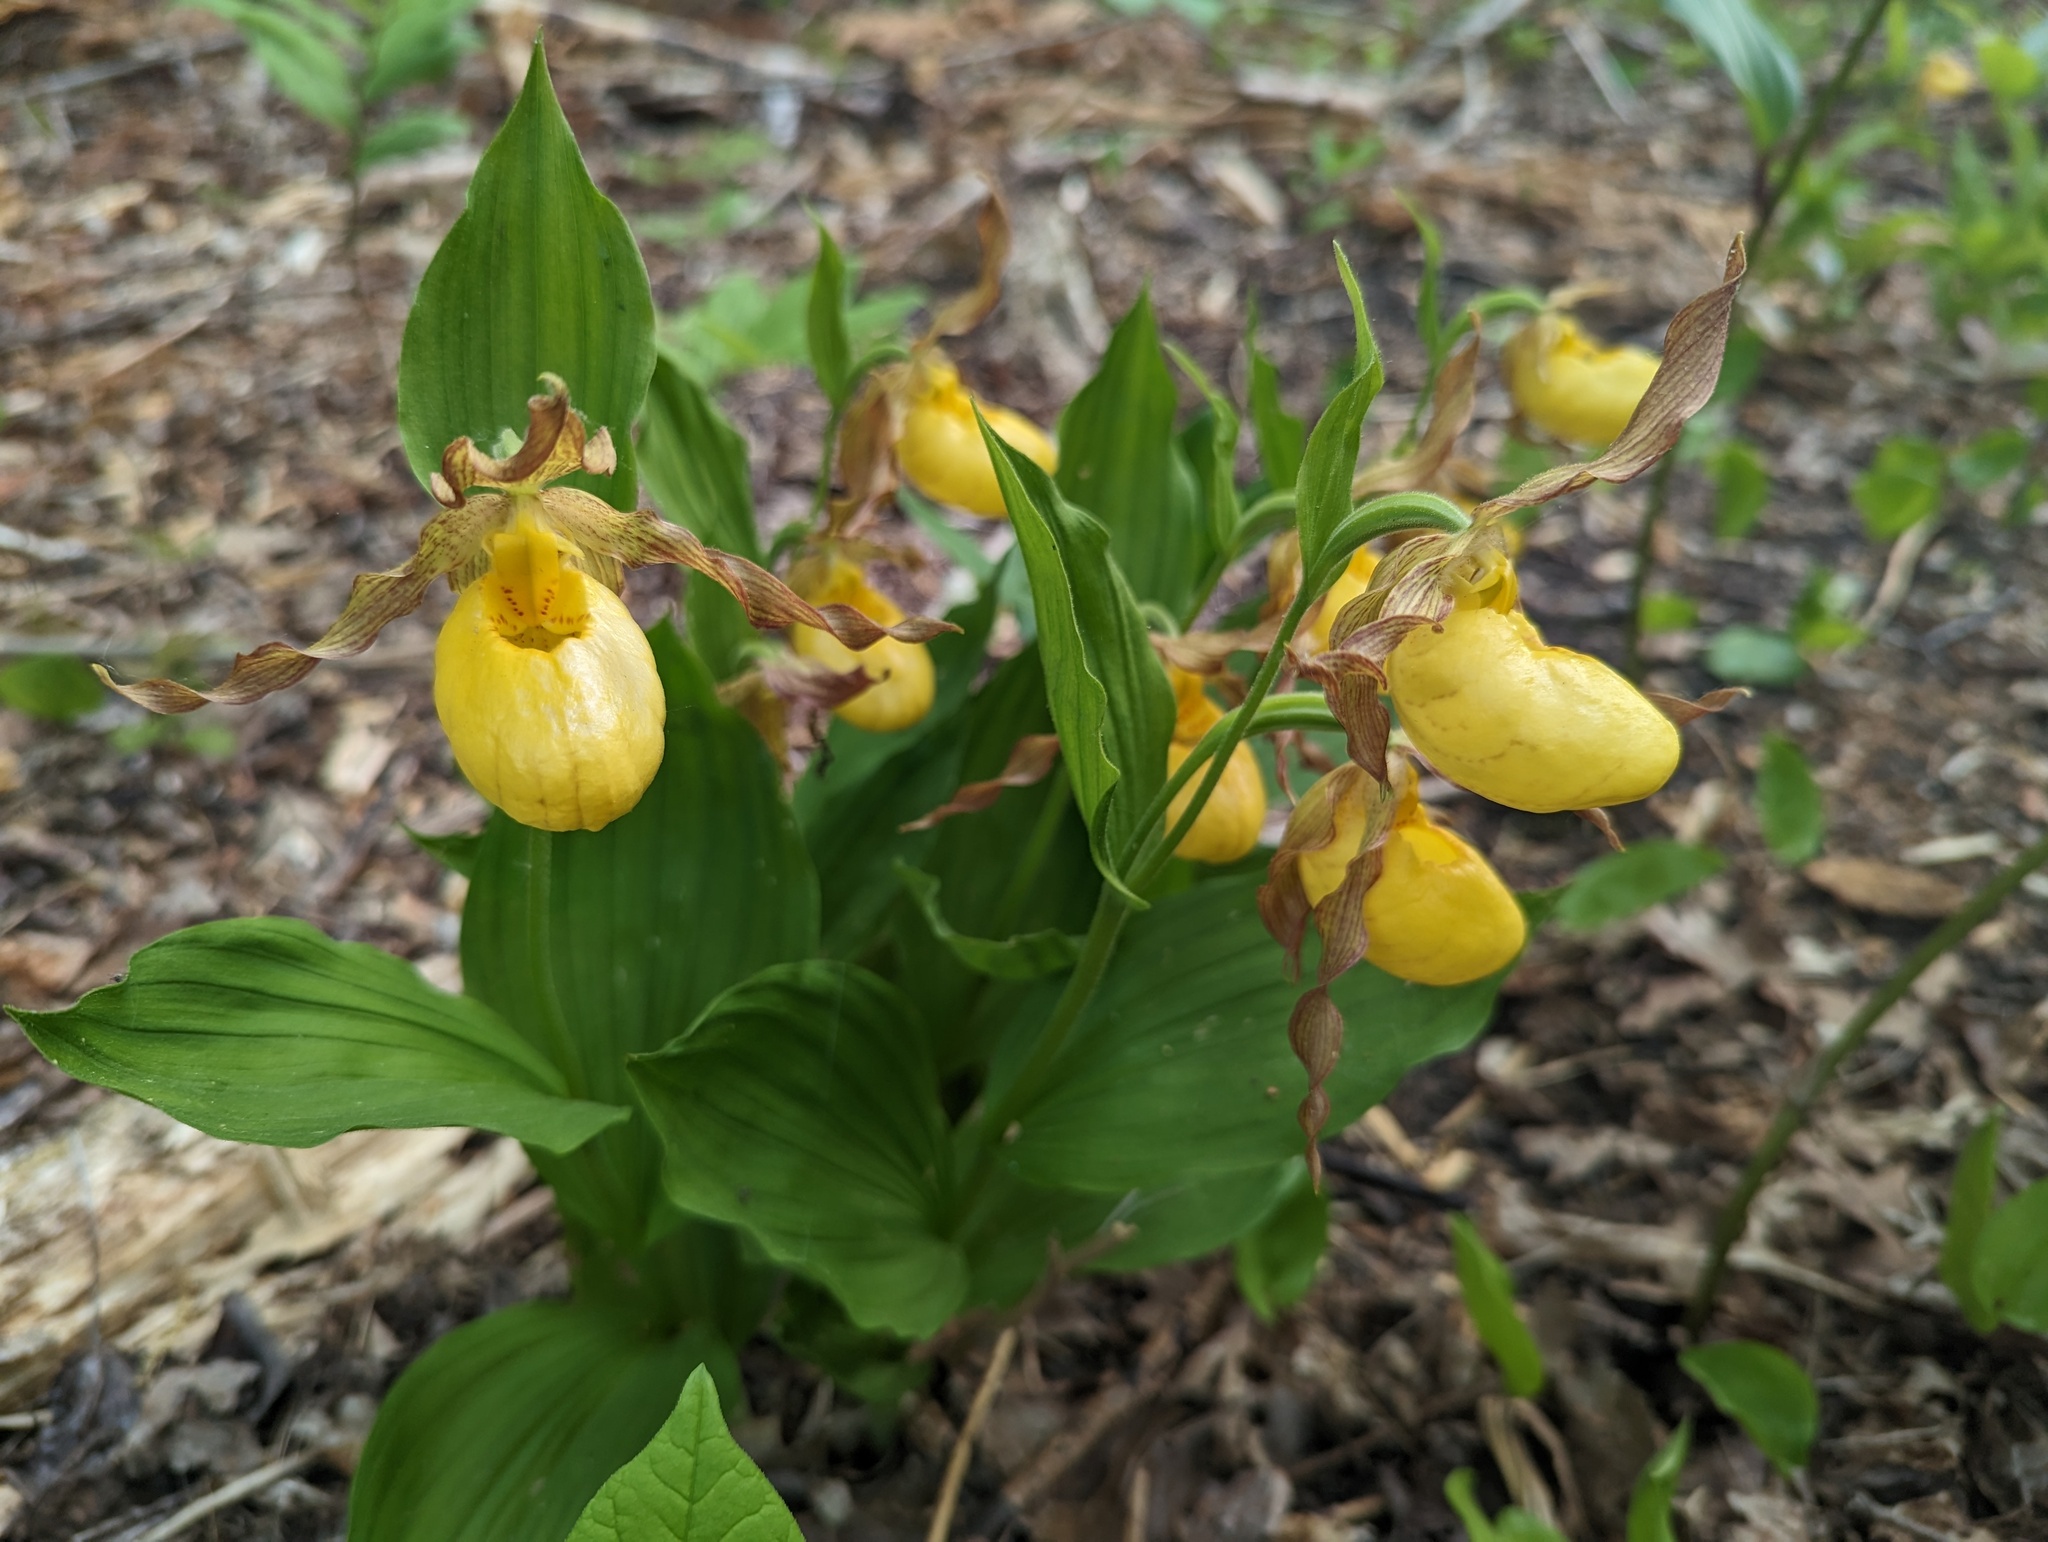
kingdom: Plantae
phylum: Tracheophyta
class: Liliopsida
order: Asparagales
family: Orchidaceae
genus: Cypripedium
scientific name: Cypripedium parviflorum
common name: American yellow lady's-slipper
